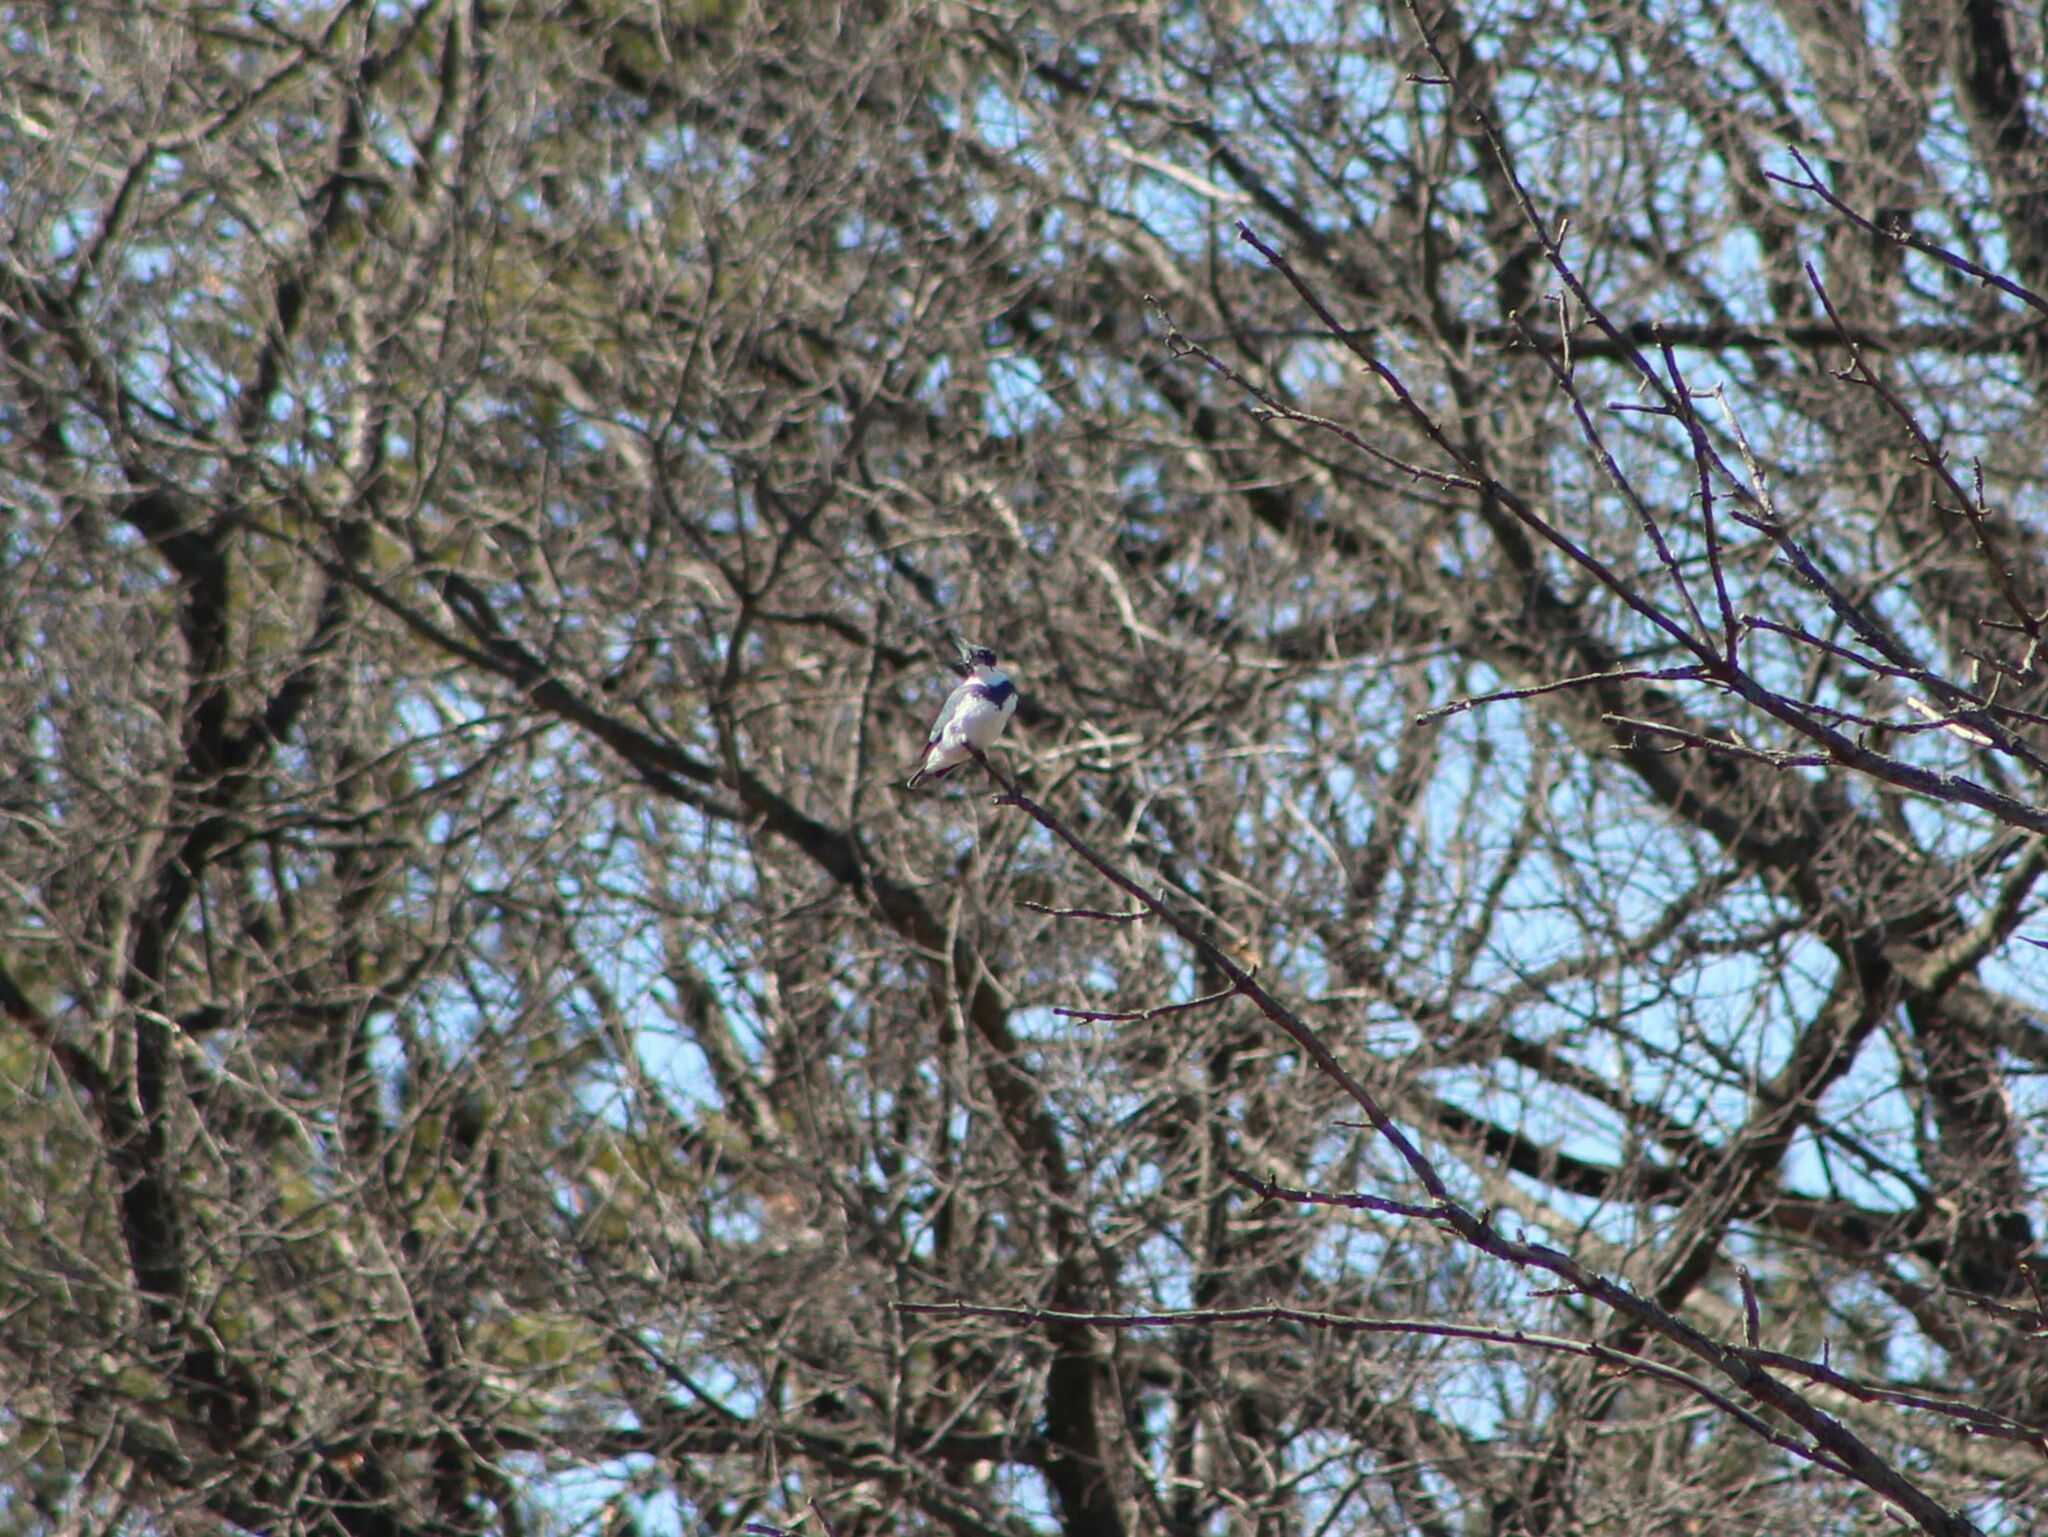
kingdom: Animalia
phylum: Chordata
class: Aves
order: Coraciiformes
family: Alcedinidae
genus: Megaceryle
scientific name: Megaceryle alcyon
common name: Belted kingfisher
